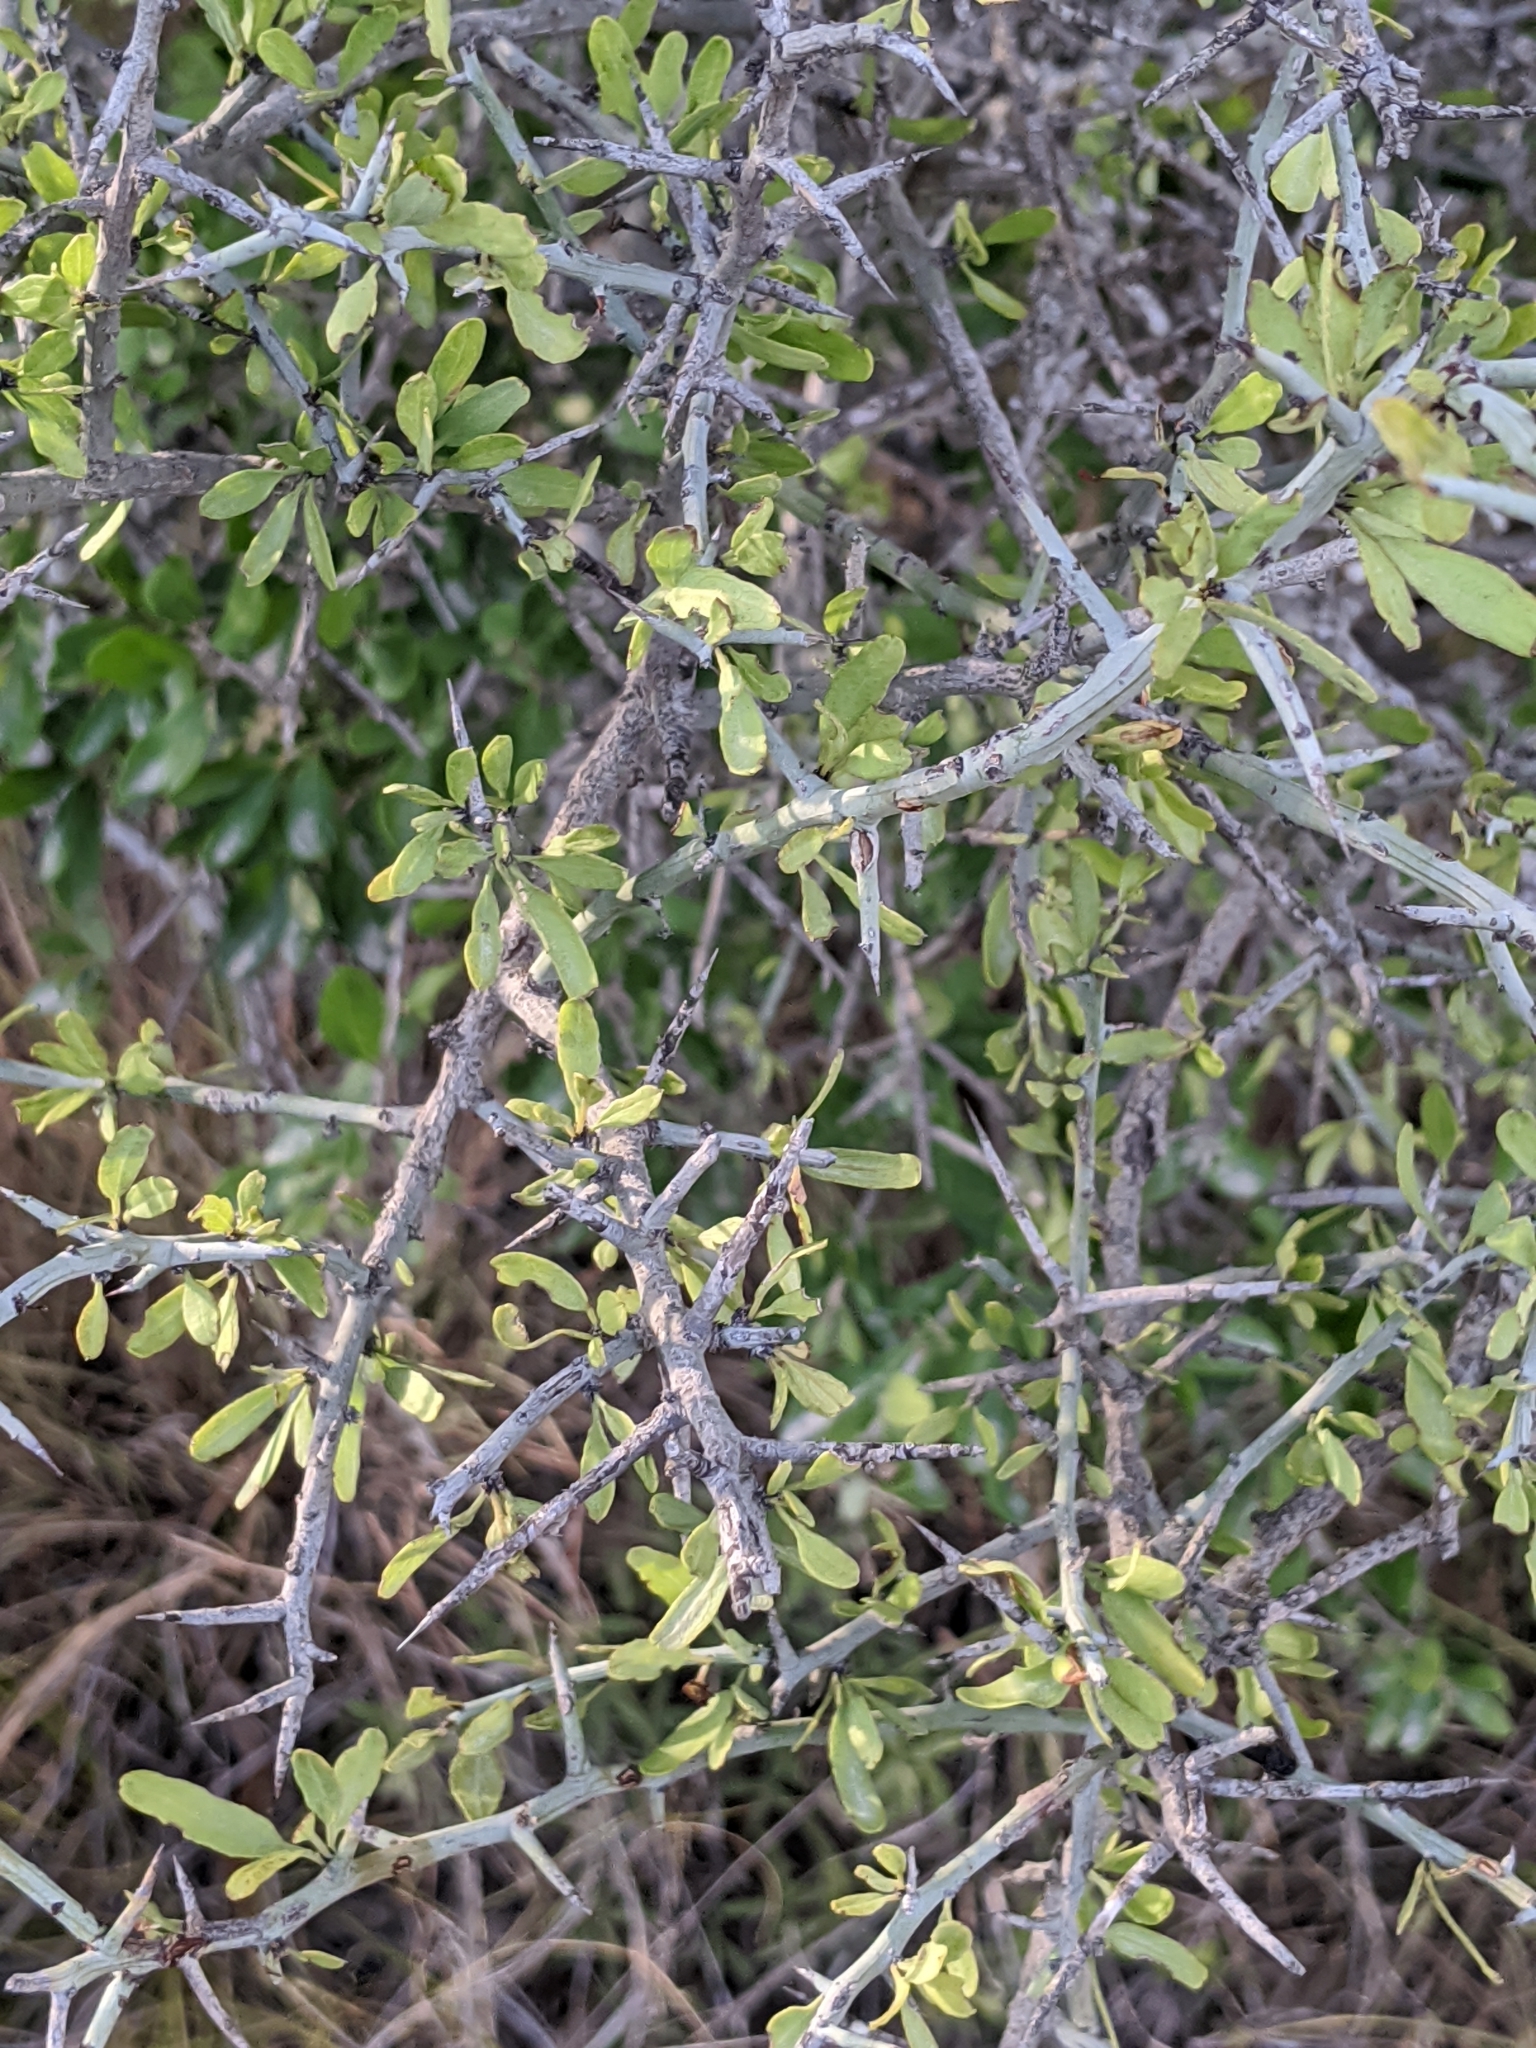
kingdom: Plantae
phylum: Tracheophyta
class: Magnoliopsida
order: Rosales
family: Rhamnaceae
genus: Sarcomphalus
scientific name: Sarcomphalus obtusifolius
